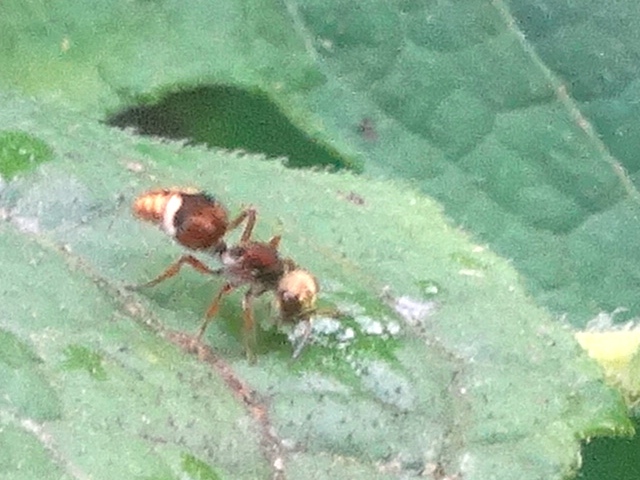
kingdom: Animalia
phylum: Arthropoda
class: Insecta
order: Hymenoptera
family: Mutillidae
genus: Ephuta
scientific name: Ephuta
